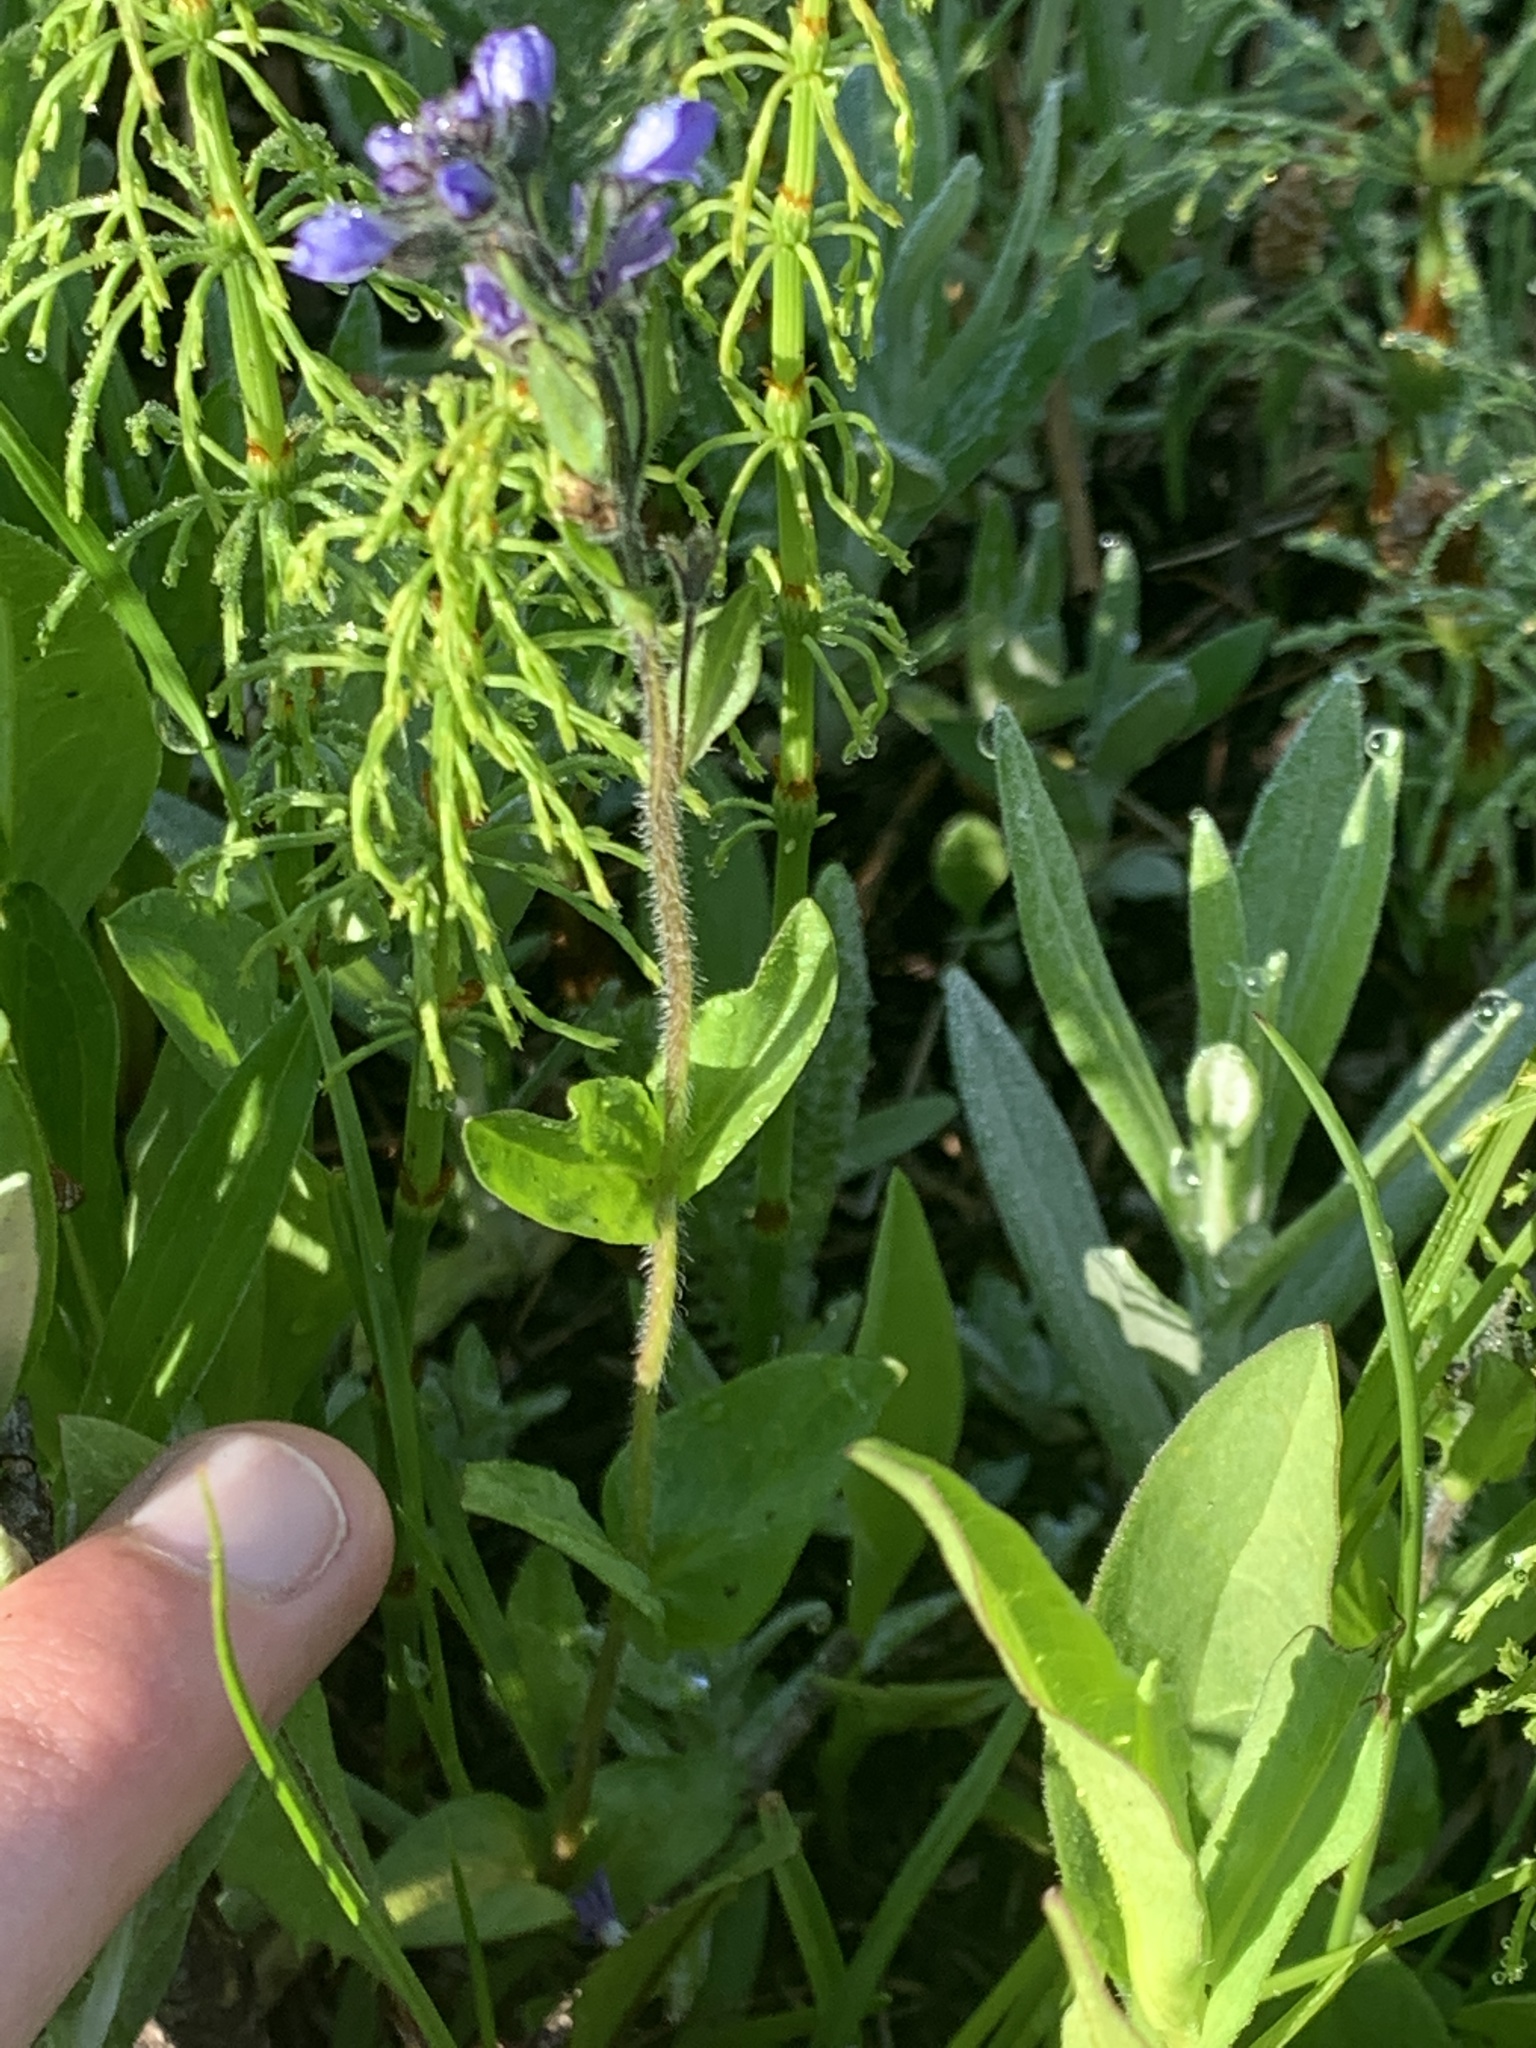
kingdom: Plantae
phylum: Tracheophyta
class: Magnoliopsida
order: Lamiales
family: Plantaginaceae
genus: Veronica
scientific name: Veronica wormskjoldii
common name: American alpine speedwell
